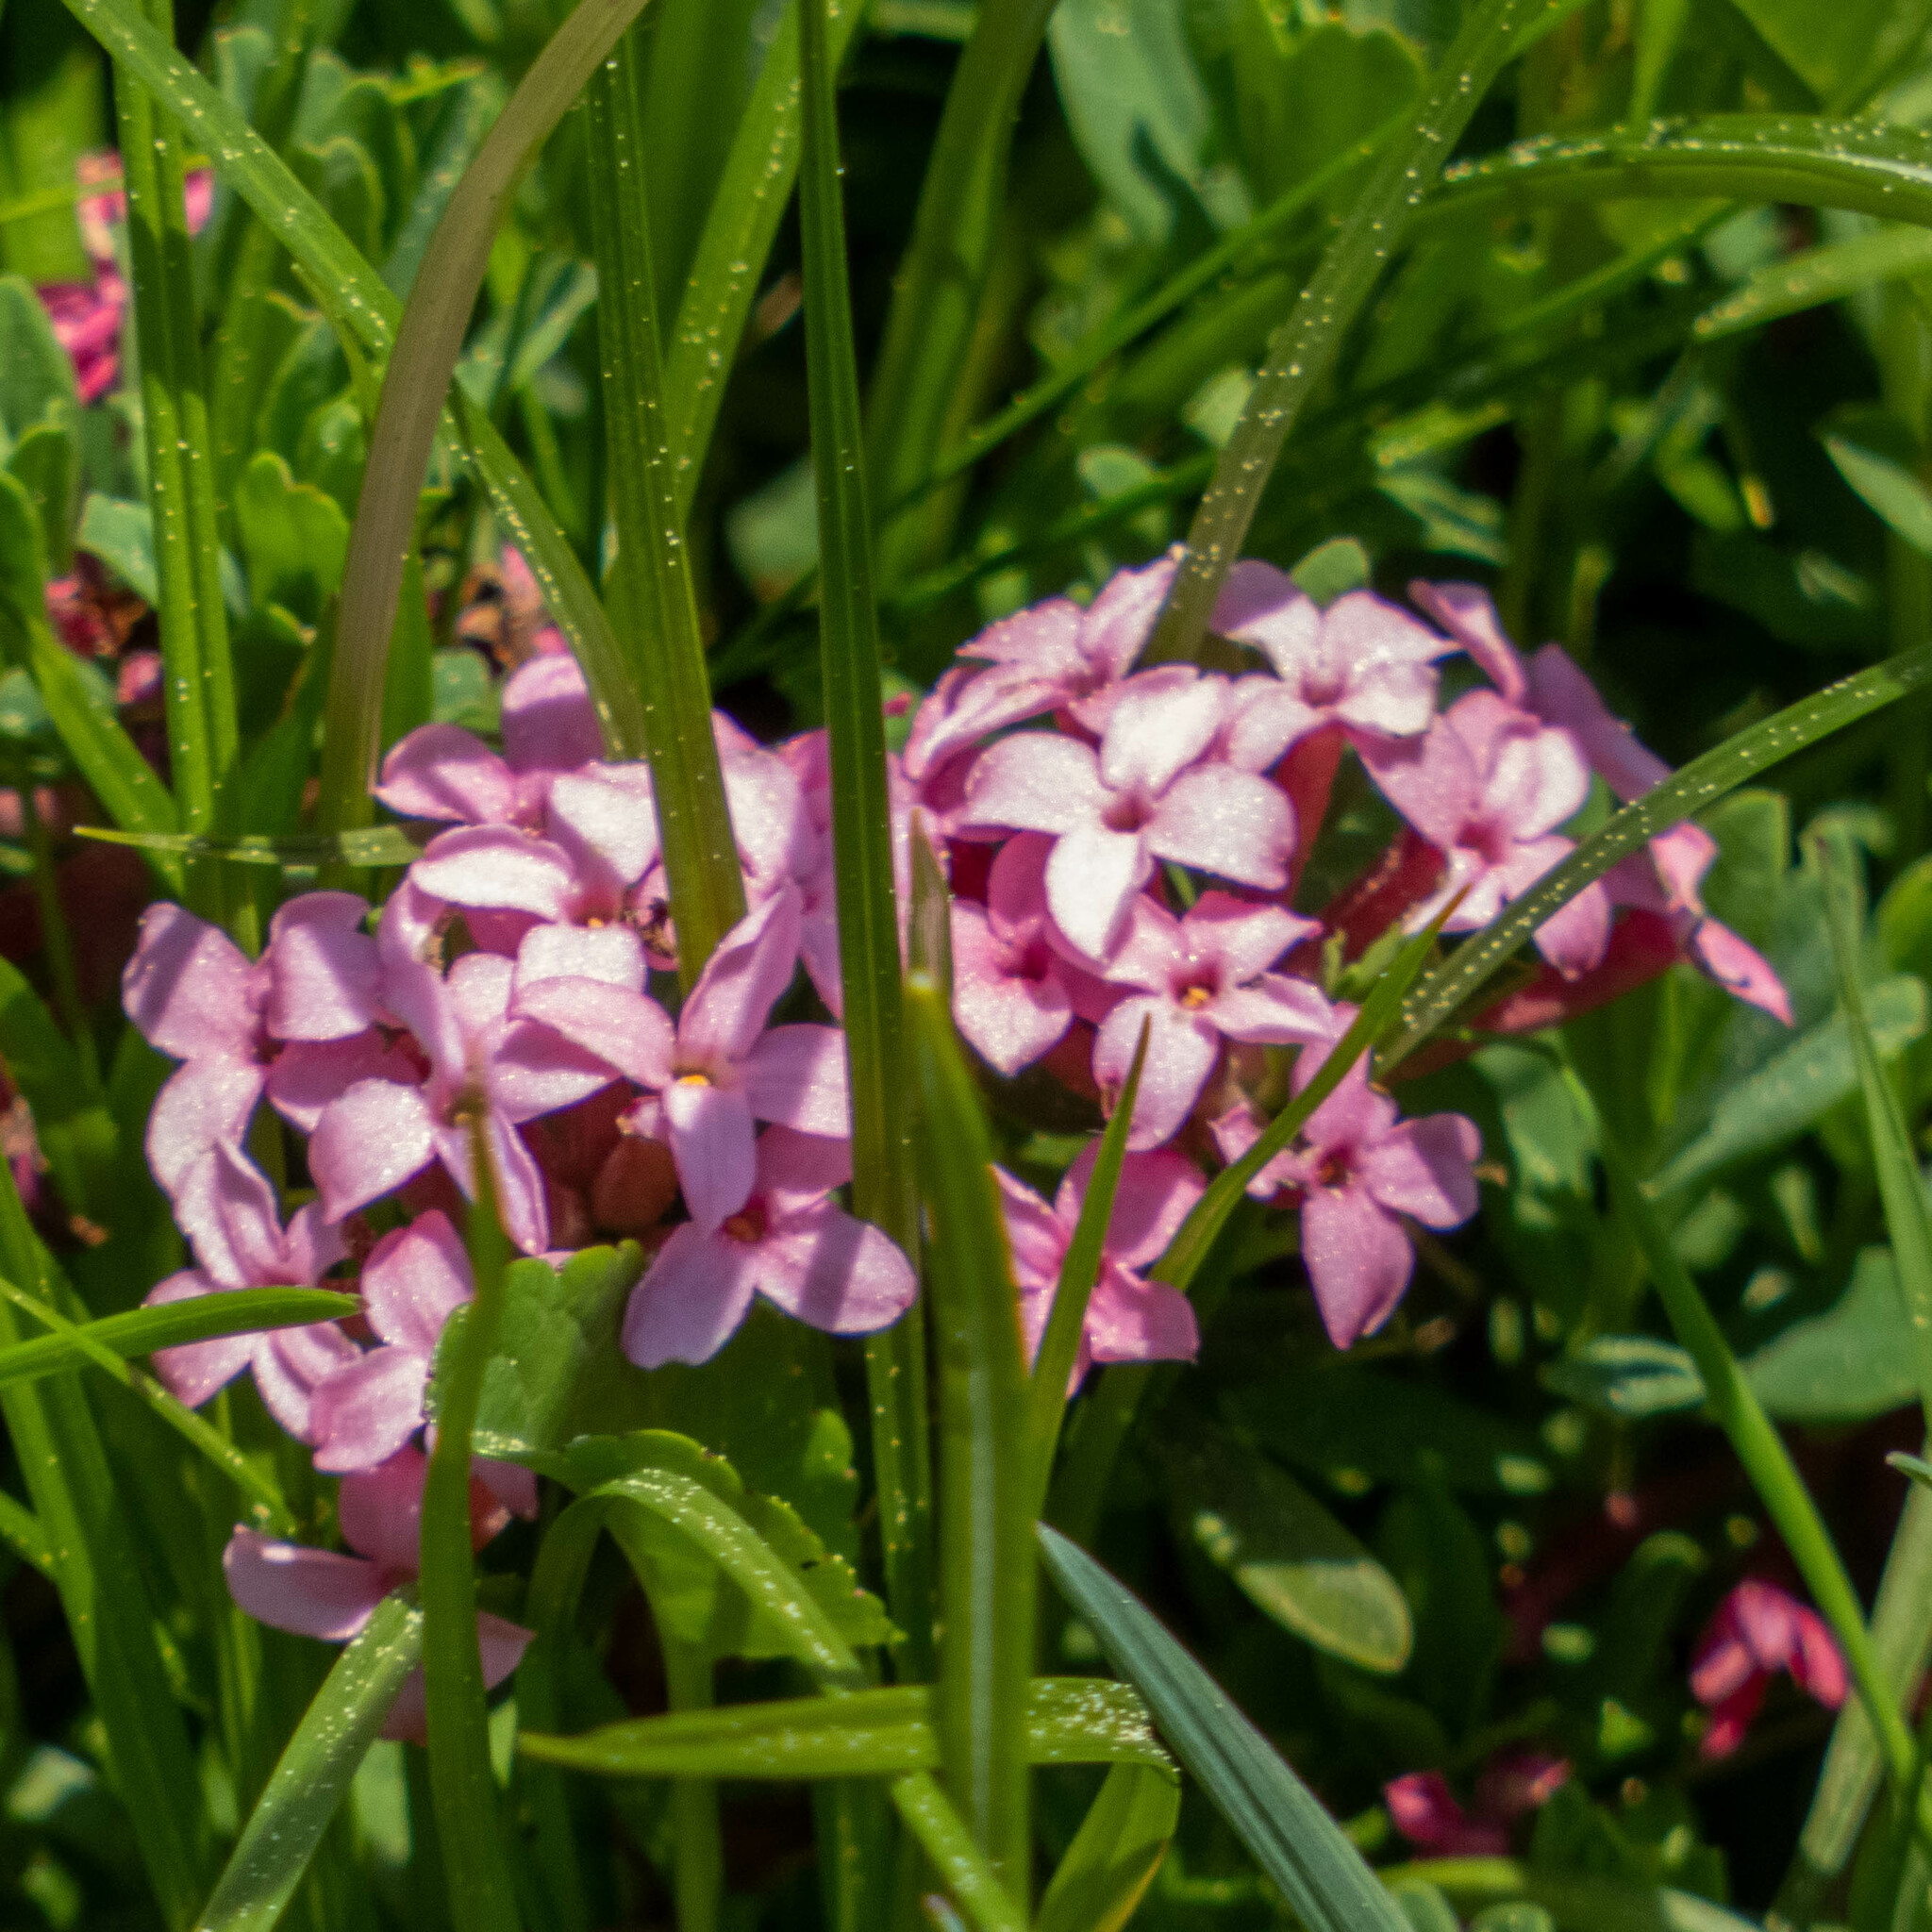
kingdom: Plantae
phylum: Tracheophyta
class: Magnoliopsida
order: Malvales
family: Thymelaeaceae
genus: Daphne
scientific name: Daphne cneorum
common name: Garland-flower
